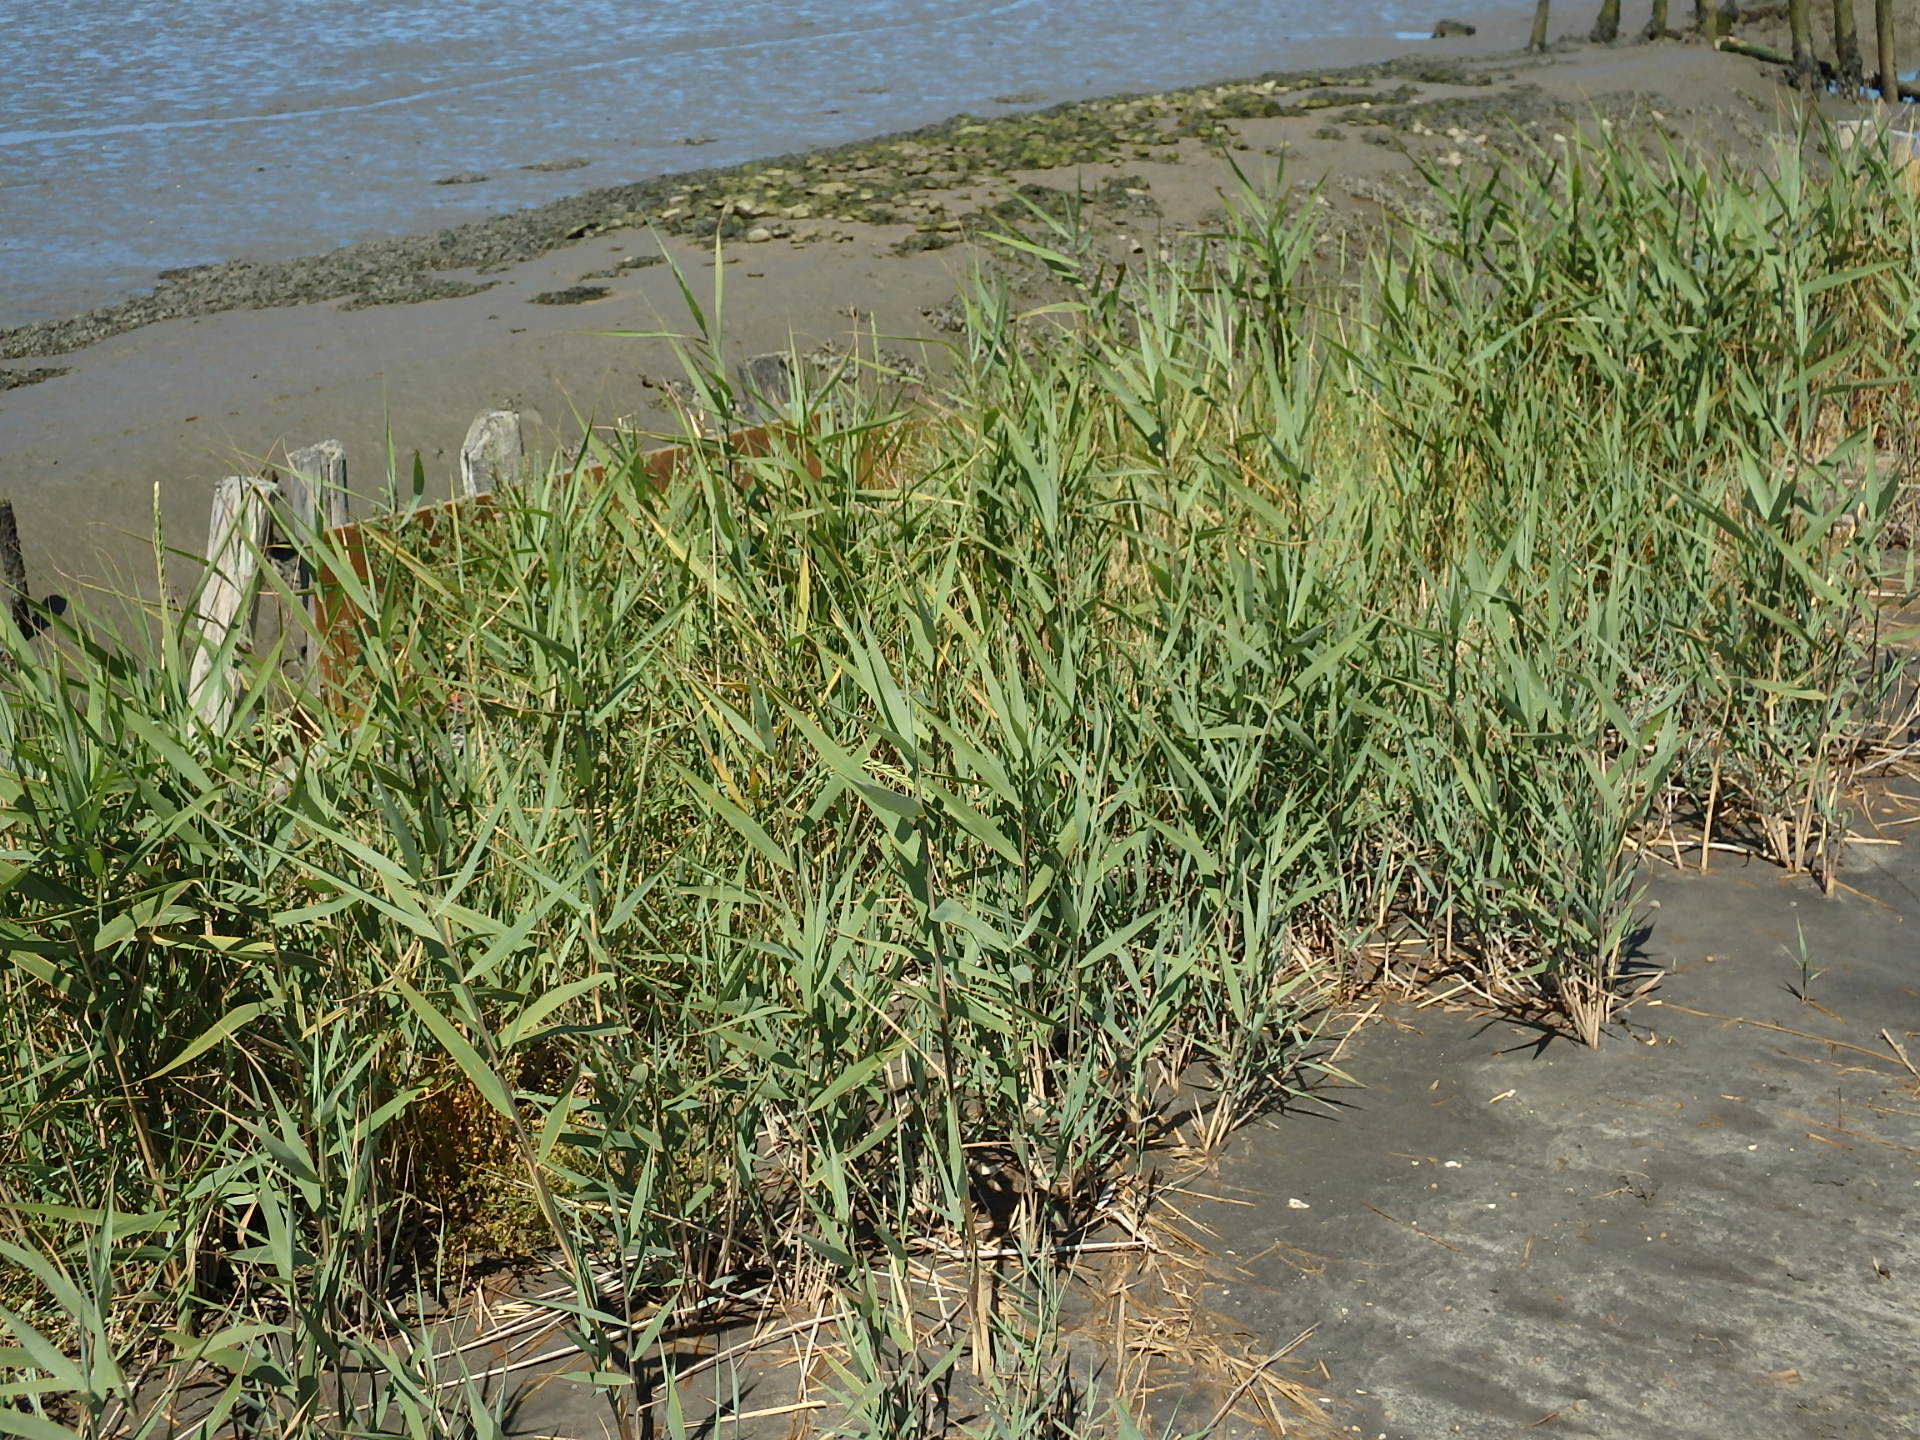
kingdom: Plantae
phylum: Tracheophyta
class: Liliopsida
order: Poales
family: Poaceae
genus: Phragmites
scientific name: Phragmites australis
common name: Common reed
